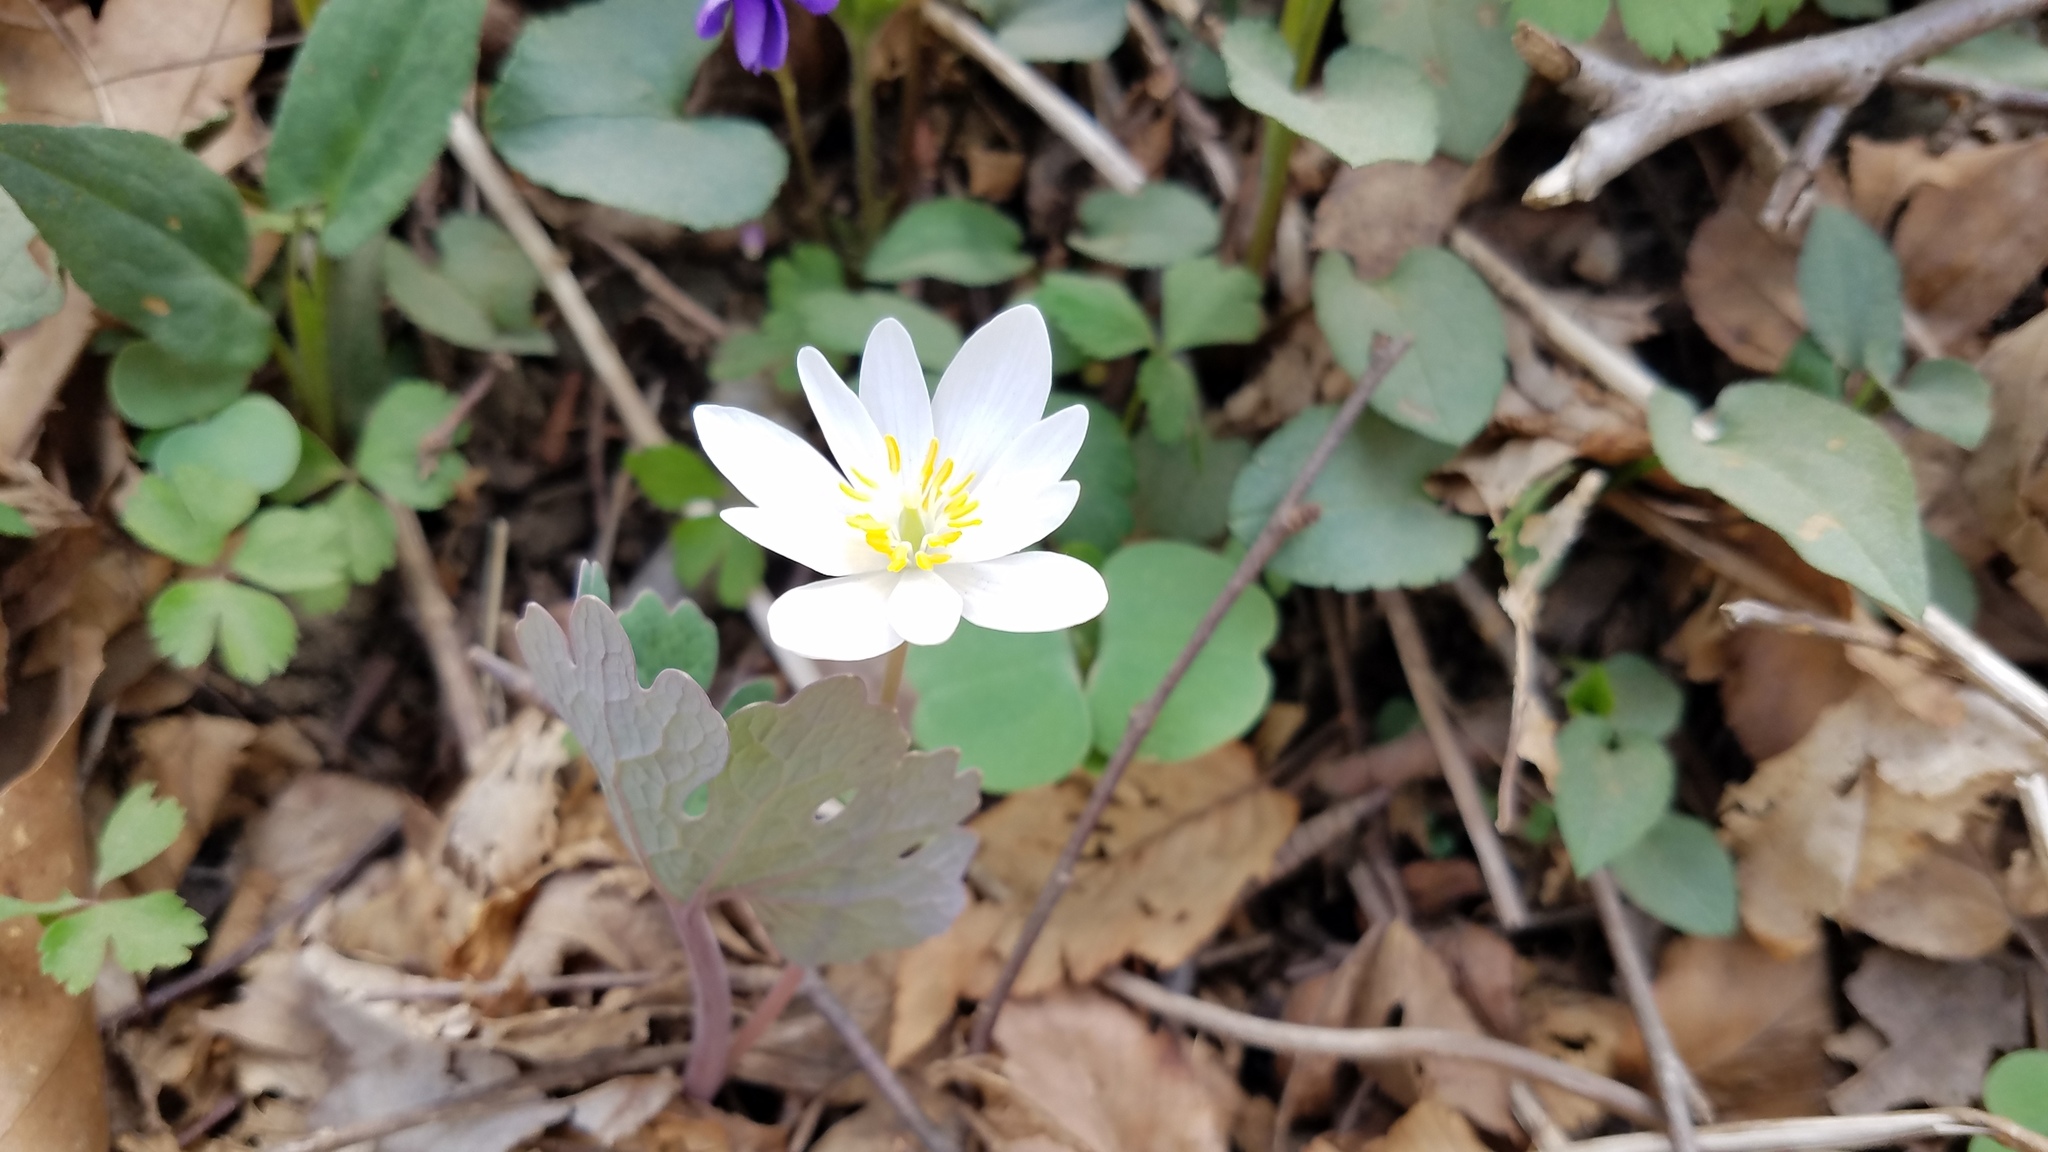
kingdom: Plantae
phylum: Tracheophyta
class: Magnoliopsida
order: Ranunculales
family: Papaveraceae
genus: Sanguinaria
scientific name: Sanguinaria canadensis
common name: Bloodroot
